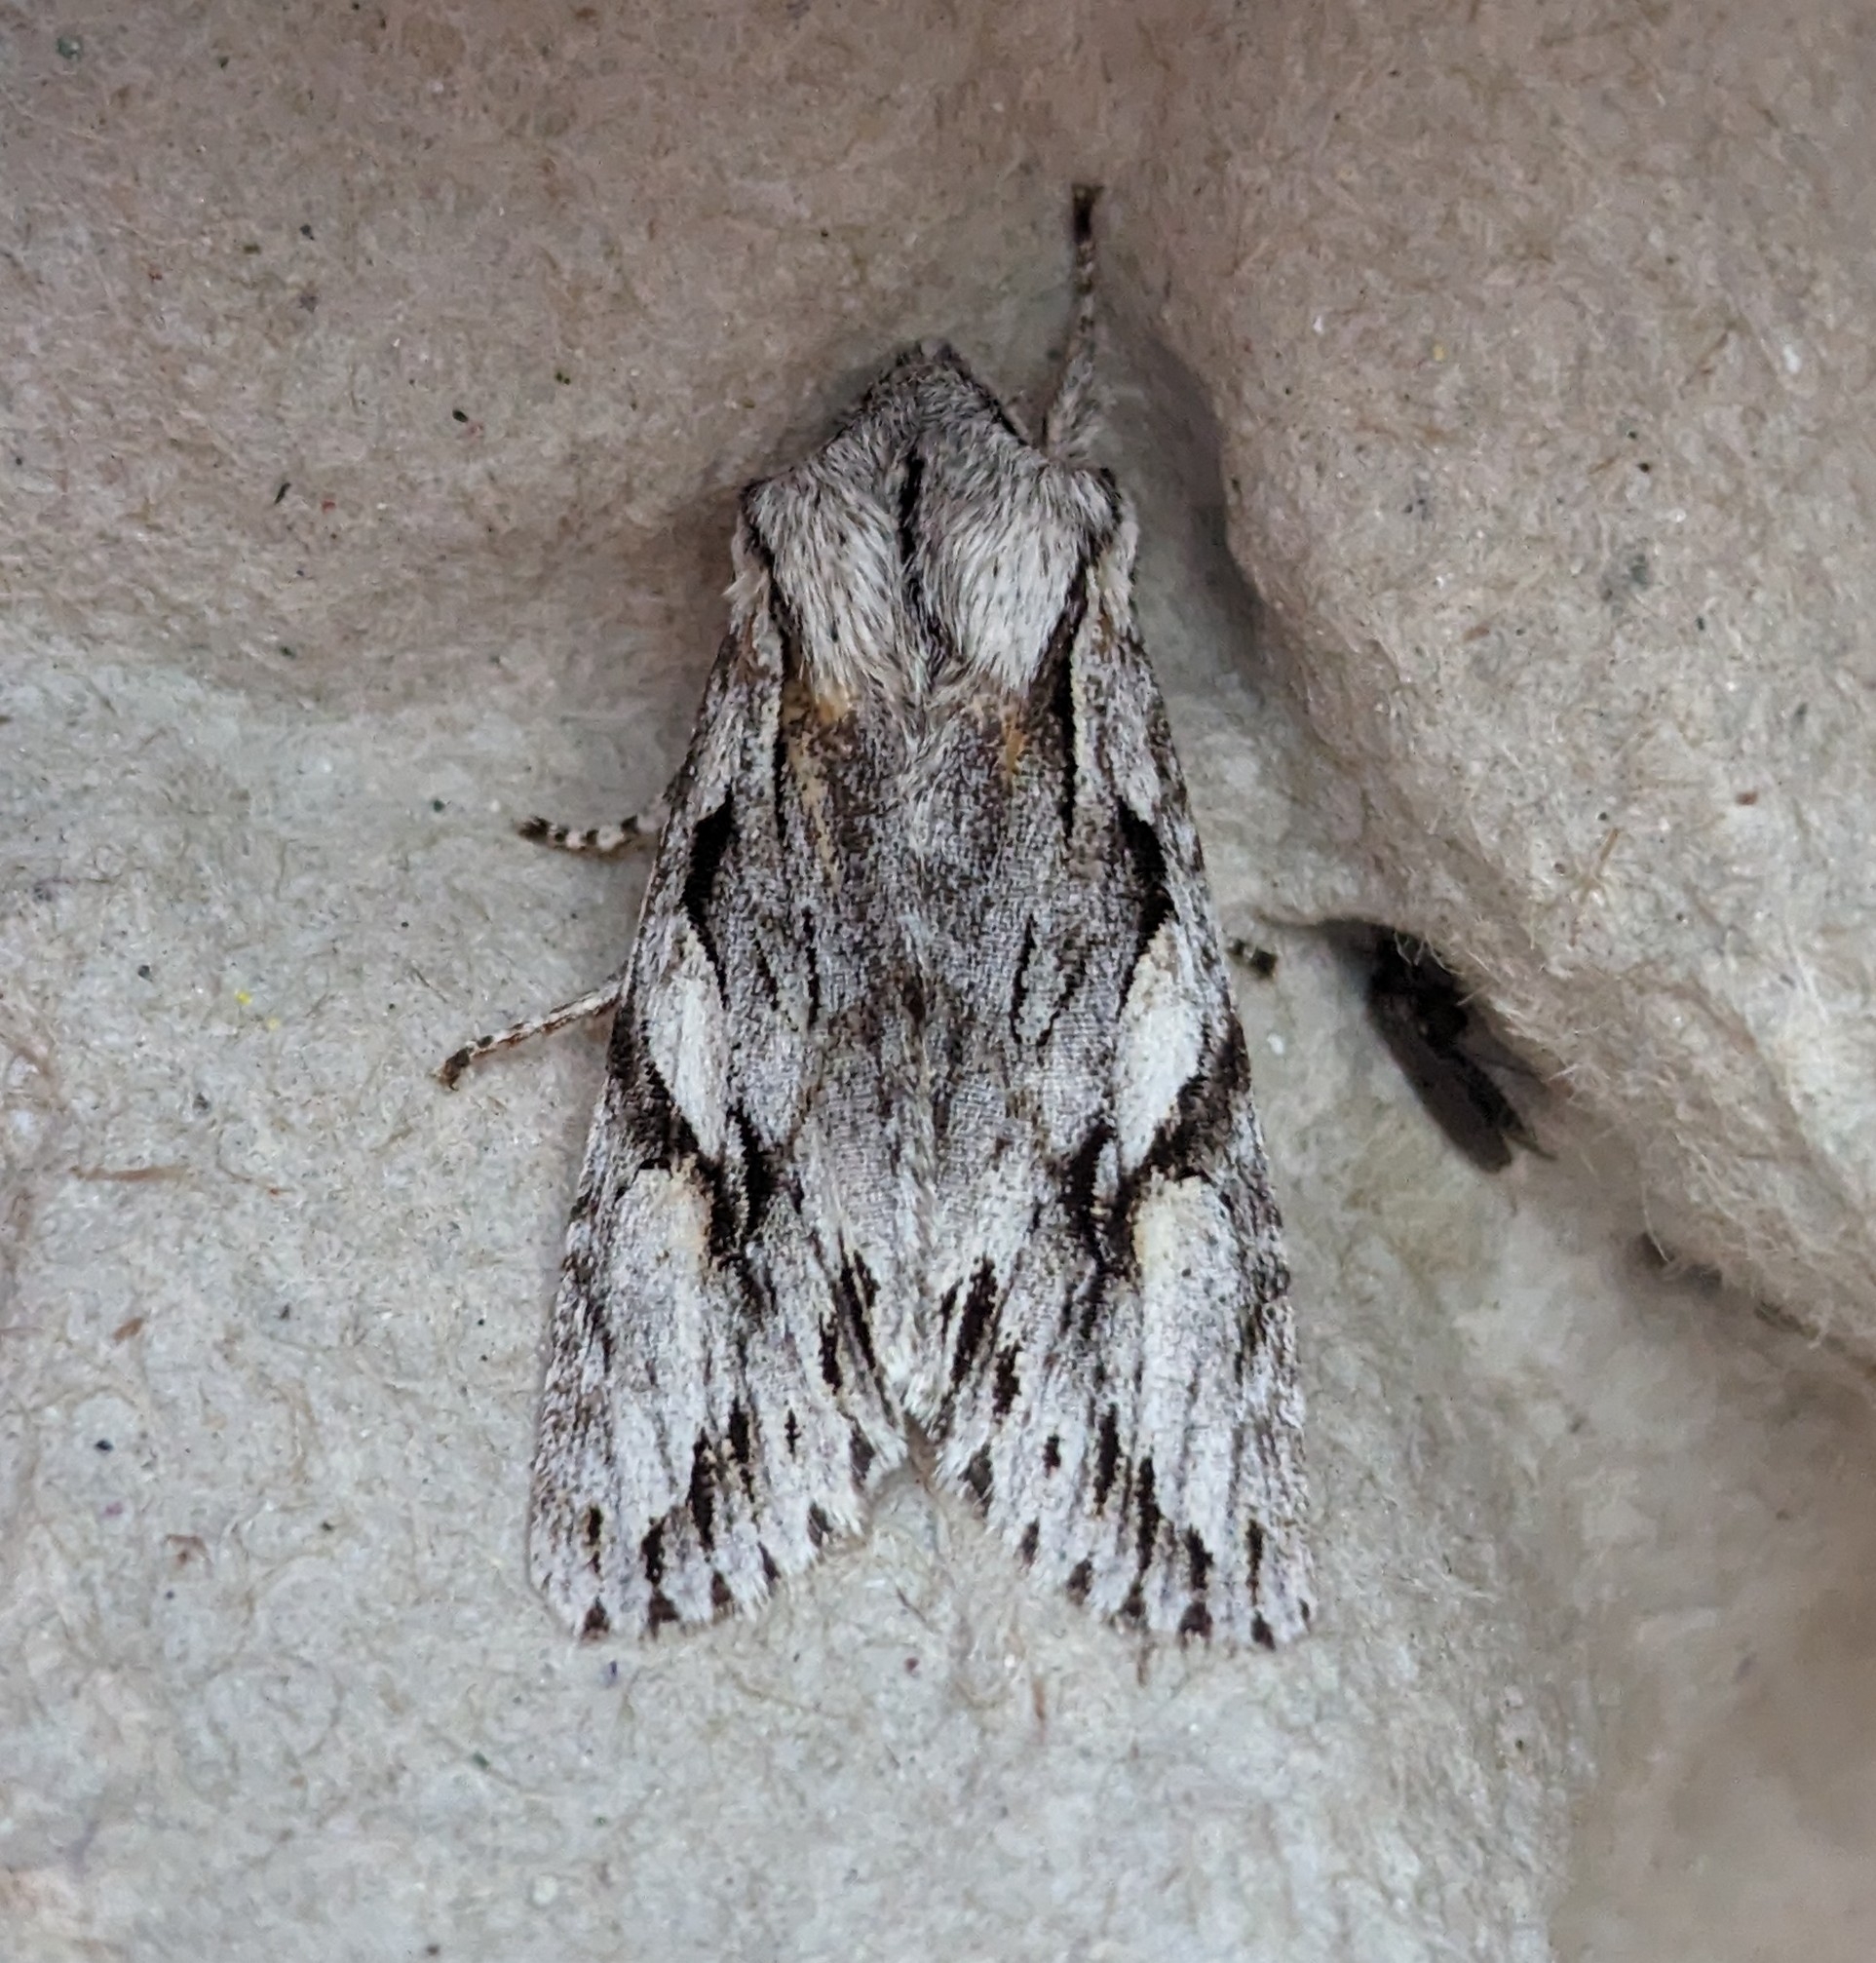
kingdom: Animalia
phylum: Arthropoda
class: Insecta
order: Lepidoptera
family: Noctuidae
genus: Egira
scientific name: Egira crucialis
